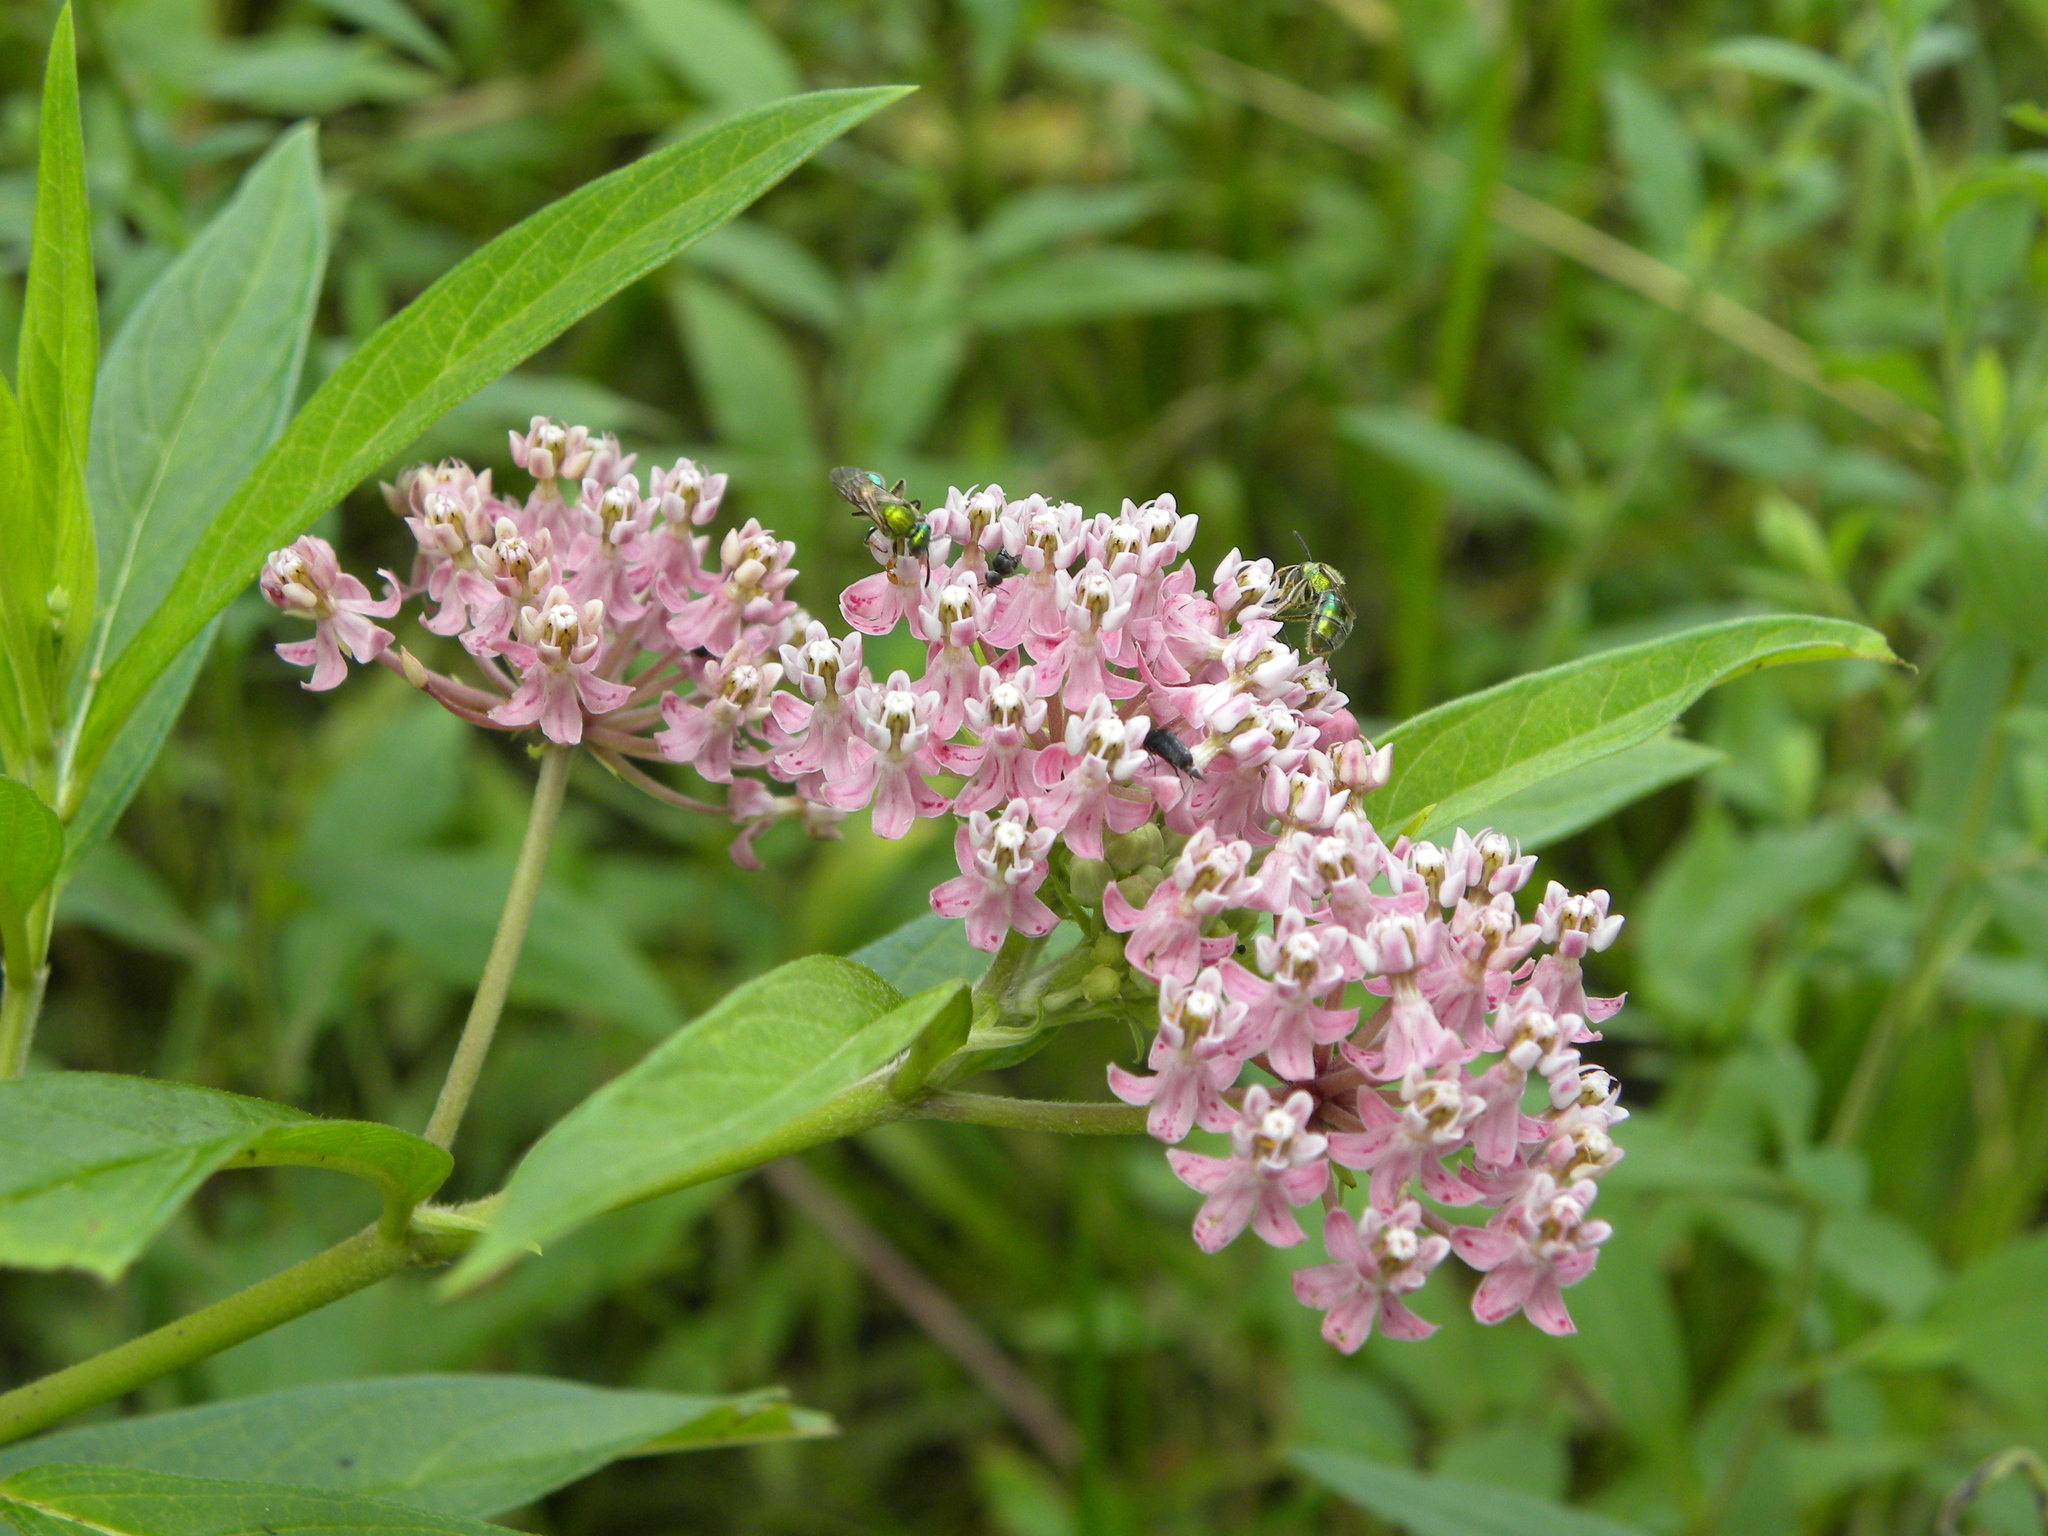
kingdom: Plantae
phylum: Tracheophyta
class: Magnoliopsida
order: Gentianales
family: Apocynaceae
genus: Asclepias
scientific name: Asclepias incarnata
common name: Swamp milkweed
